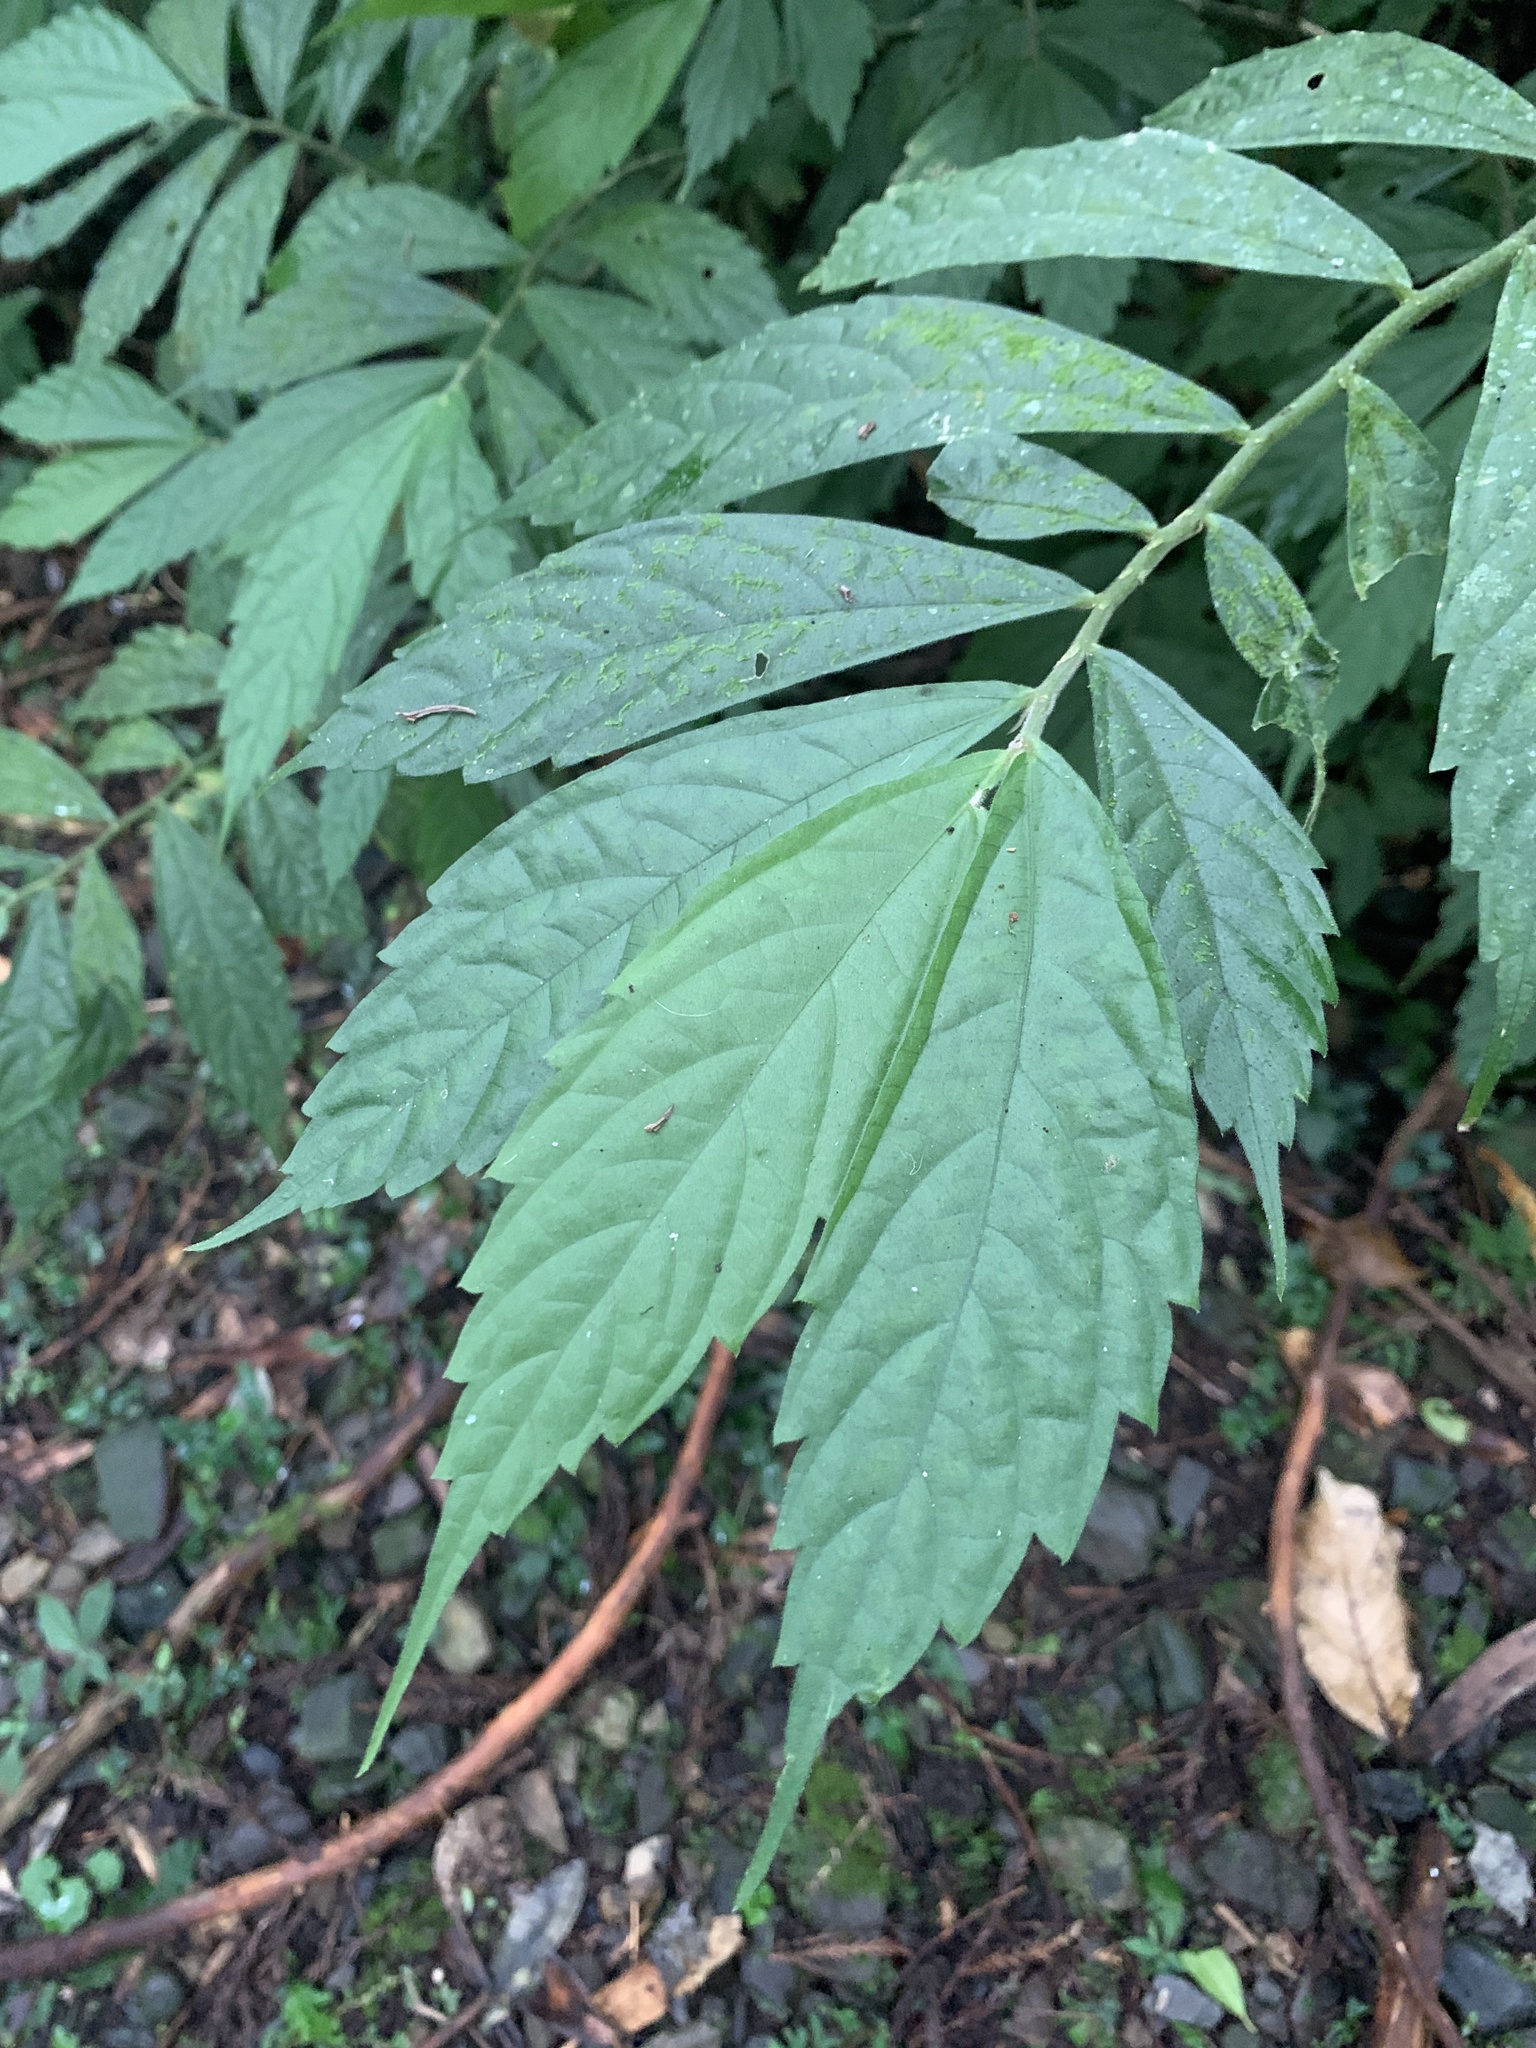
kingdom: Plantae
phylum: Tracheophyta
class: Magnoliopsida
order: Rosales
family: Urticaceae
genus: Elatostema
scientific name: Elatostema lineolatum
